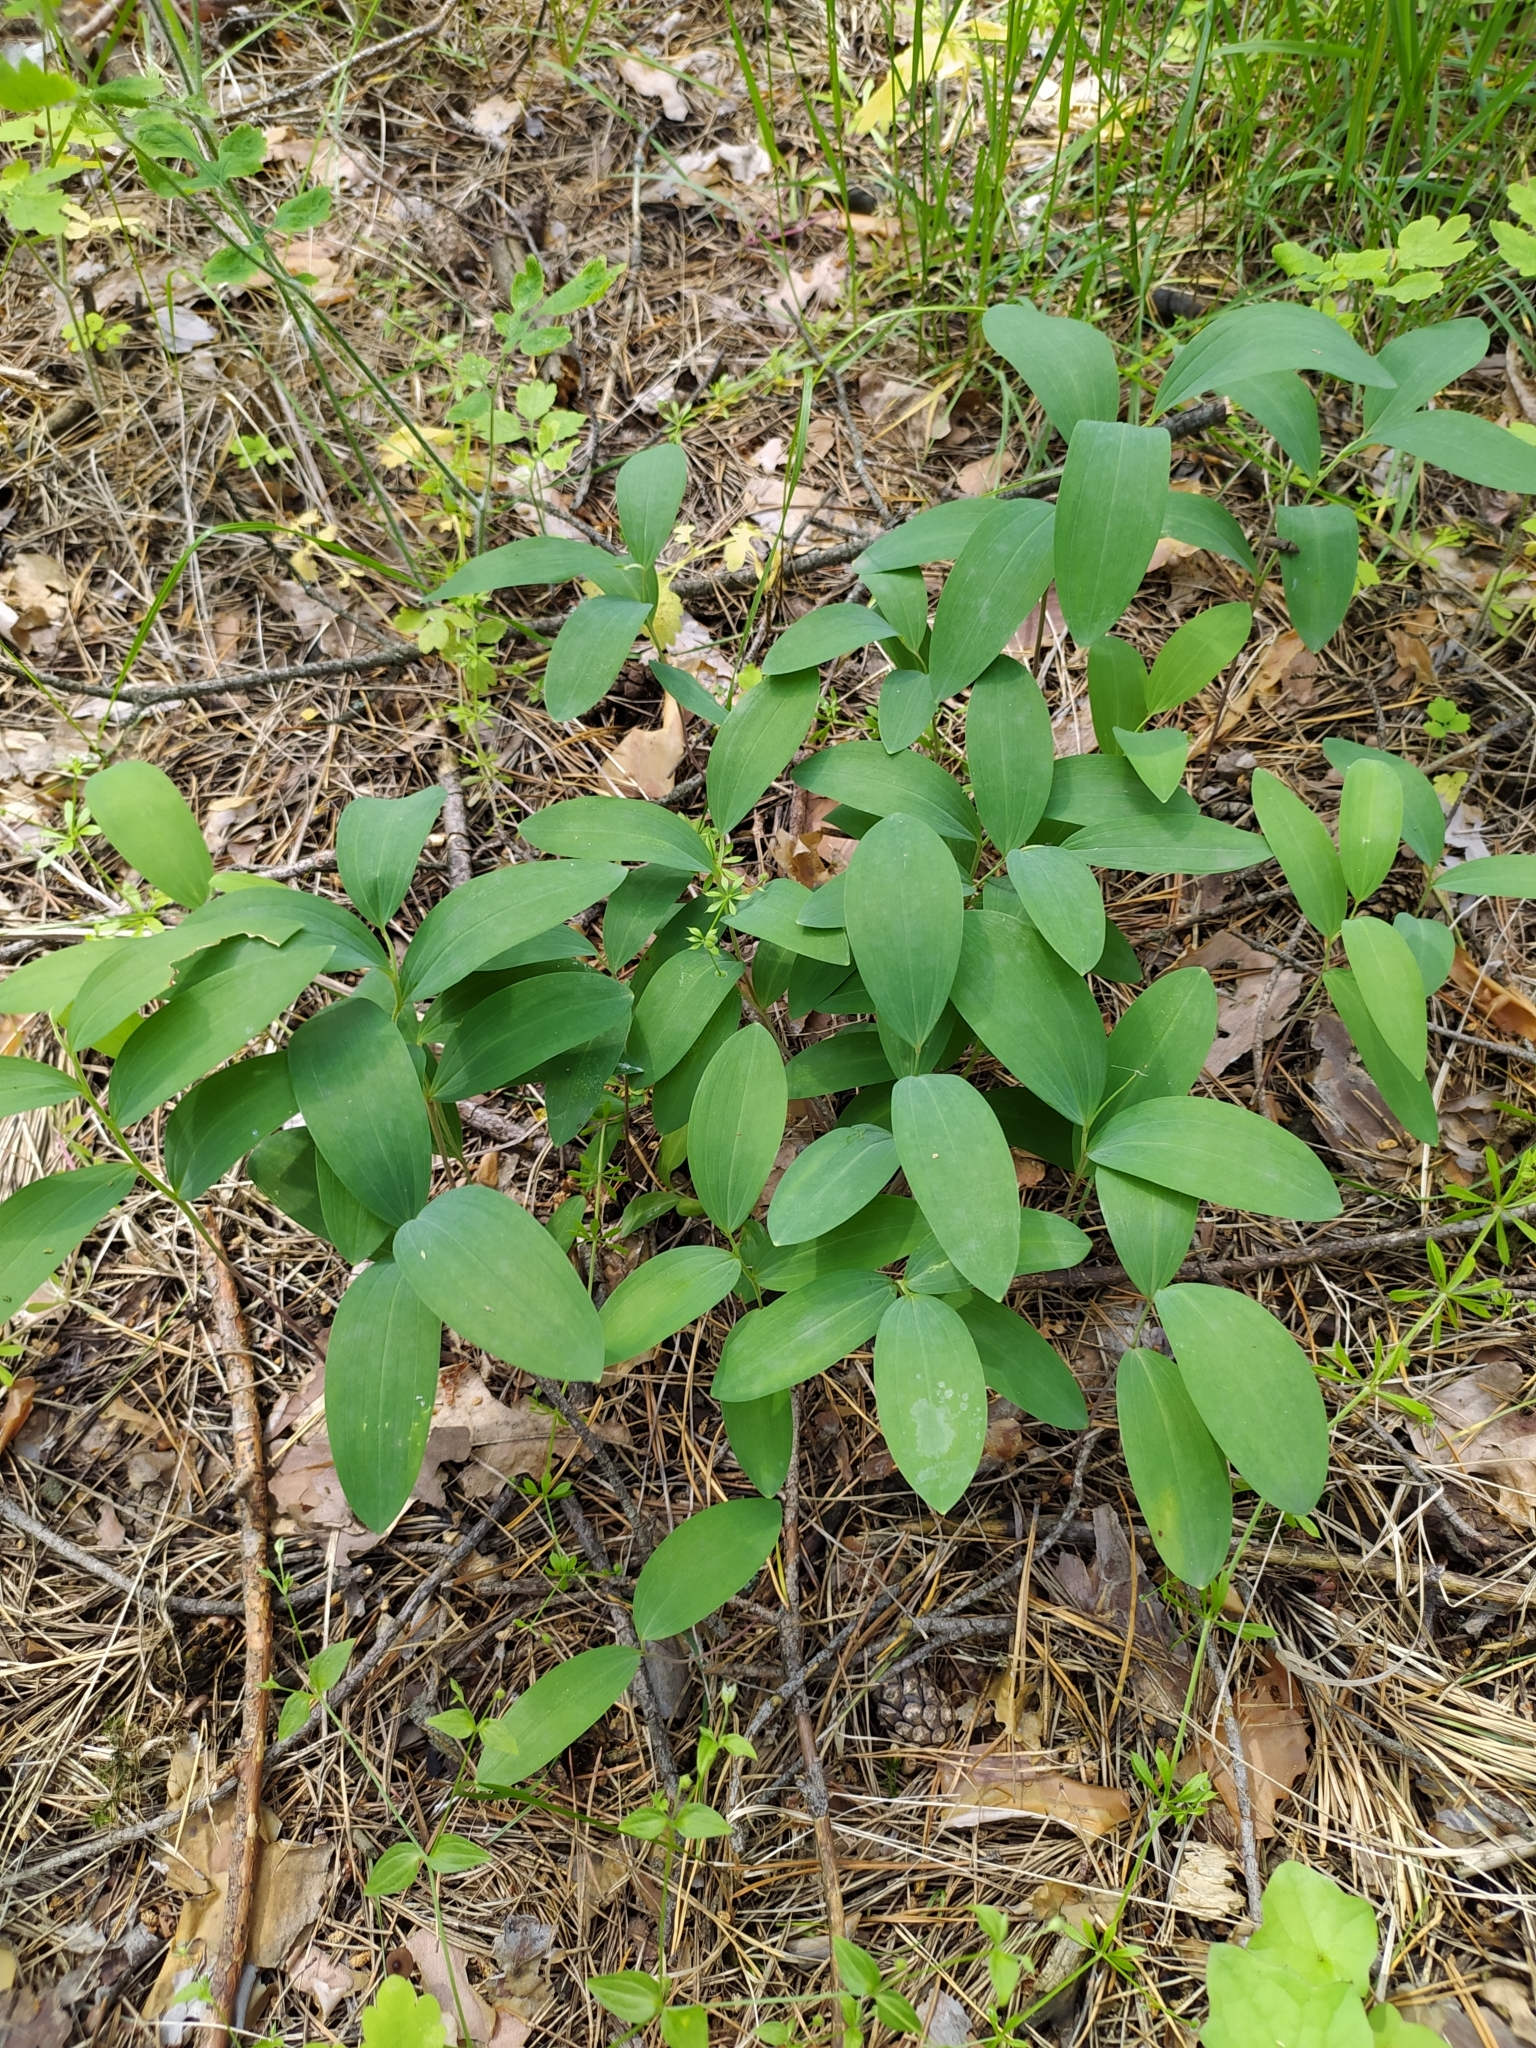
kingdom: Plantae
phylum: Tracheophyta
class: Liliopsida
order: Asparagales
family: Asparagaceae
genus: Polygonatum
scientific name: Polygonatum odoratum
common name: Angular solomon's-seal
